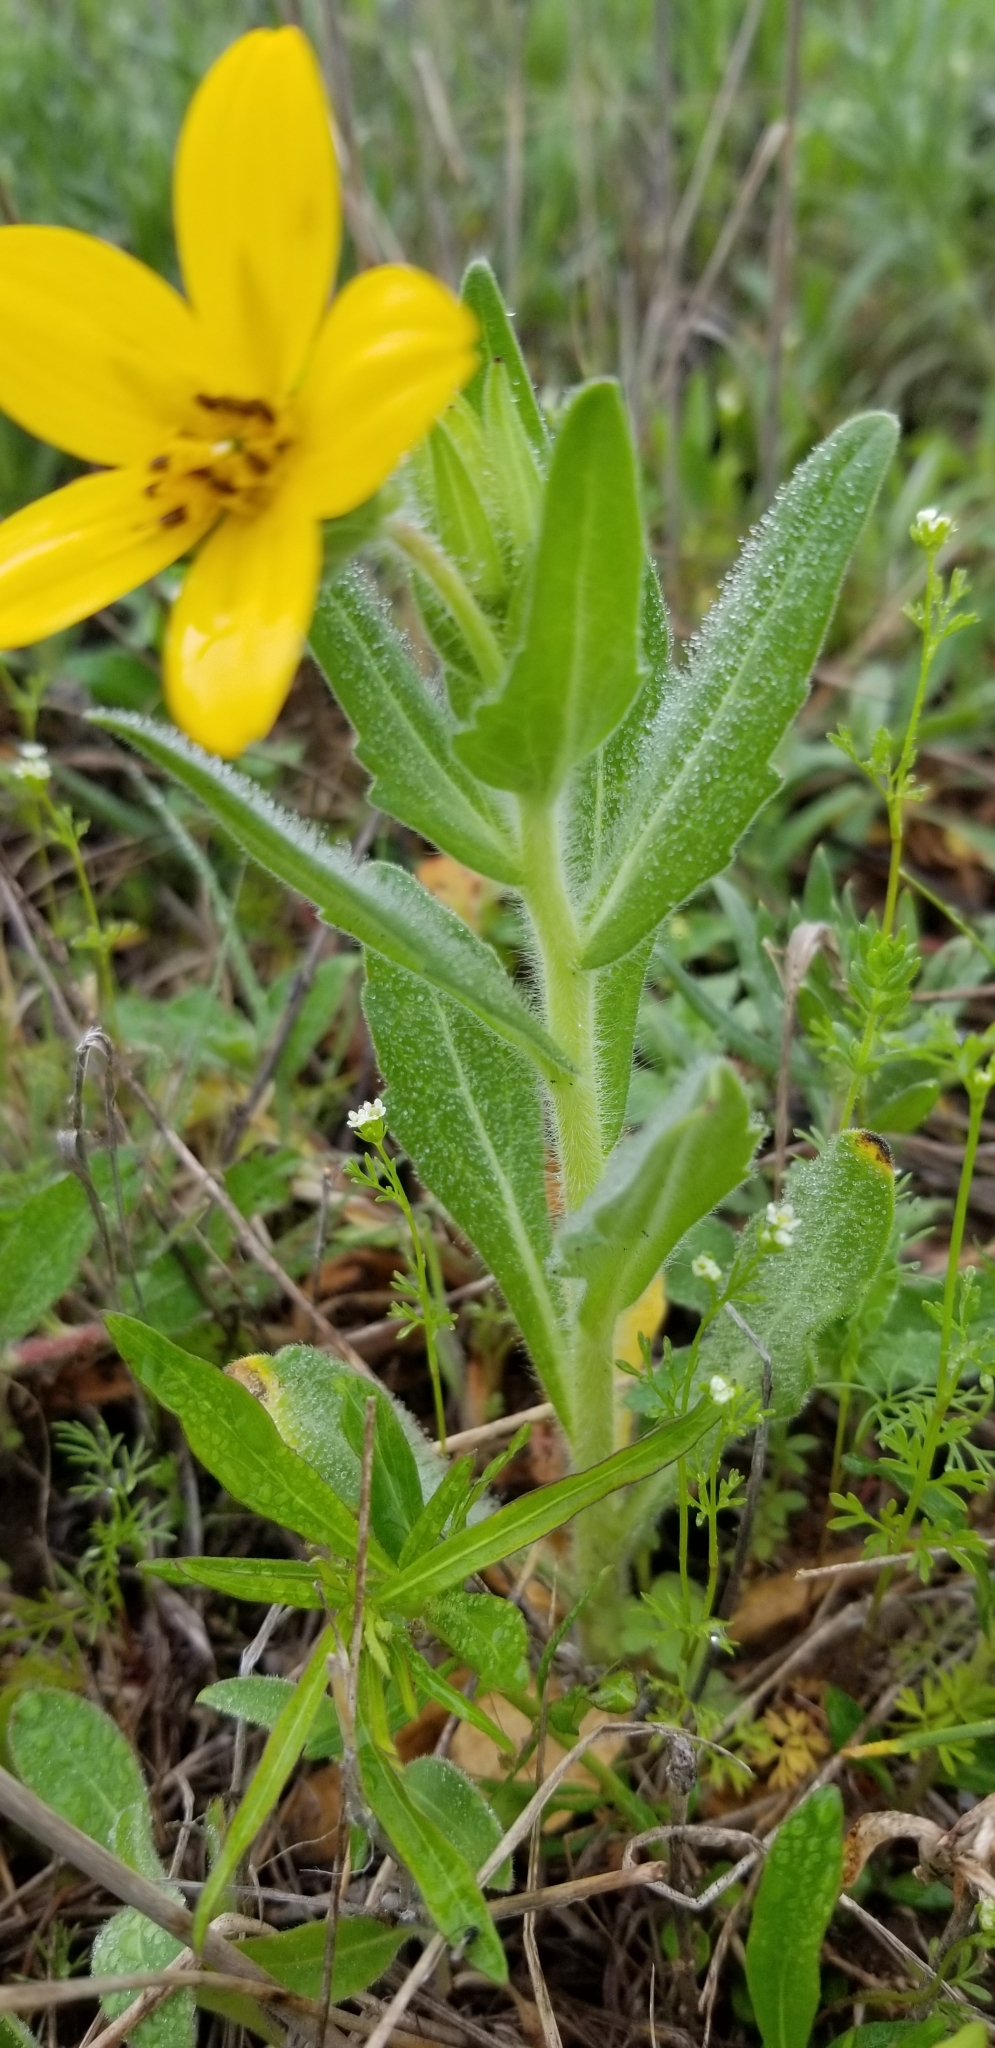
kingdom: Plantae
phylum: Tracheophyta
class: Magnoliopsida
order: Asterales
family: Asteraceae
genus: Lindheimera
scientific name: Lindheimera texana
